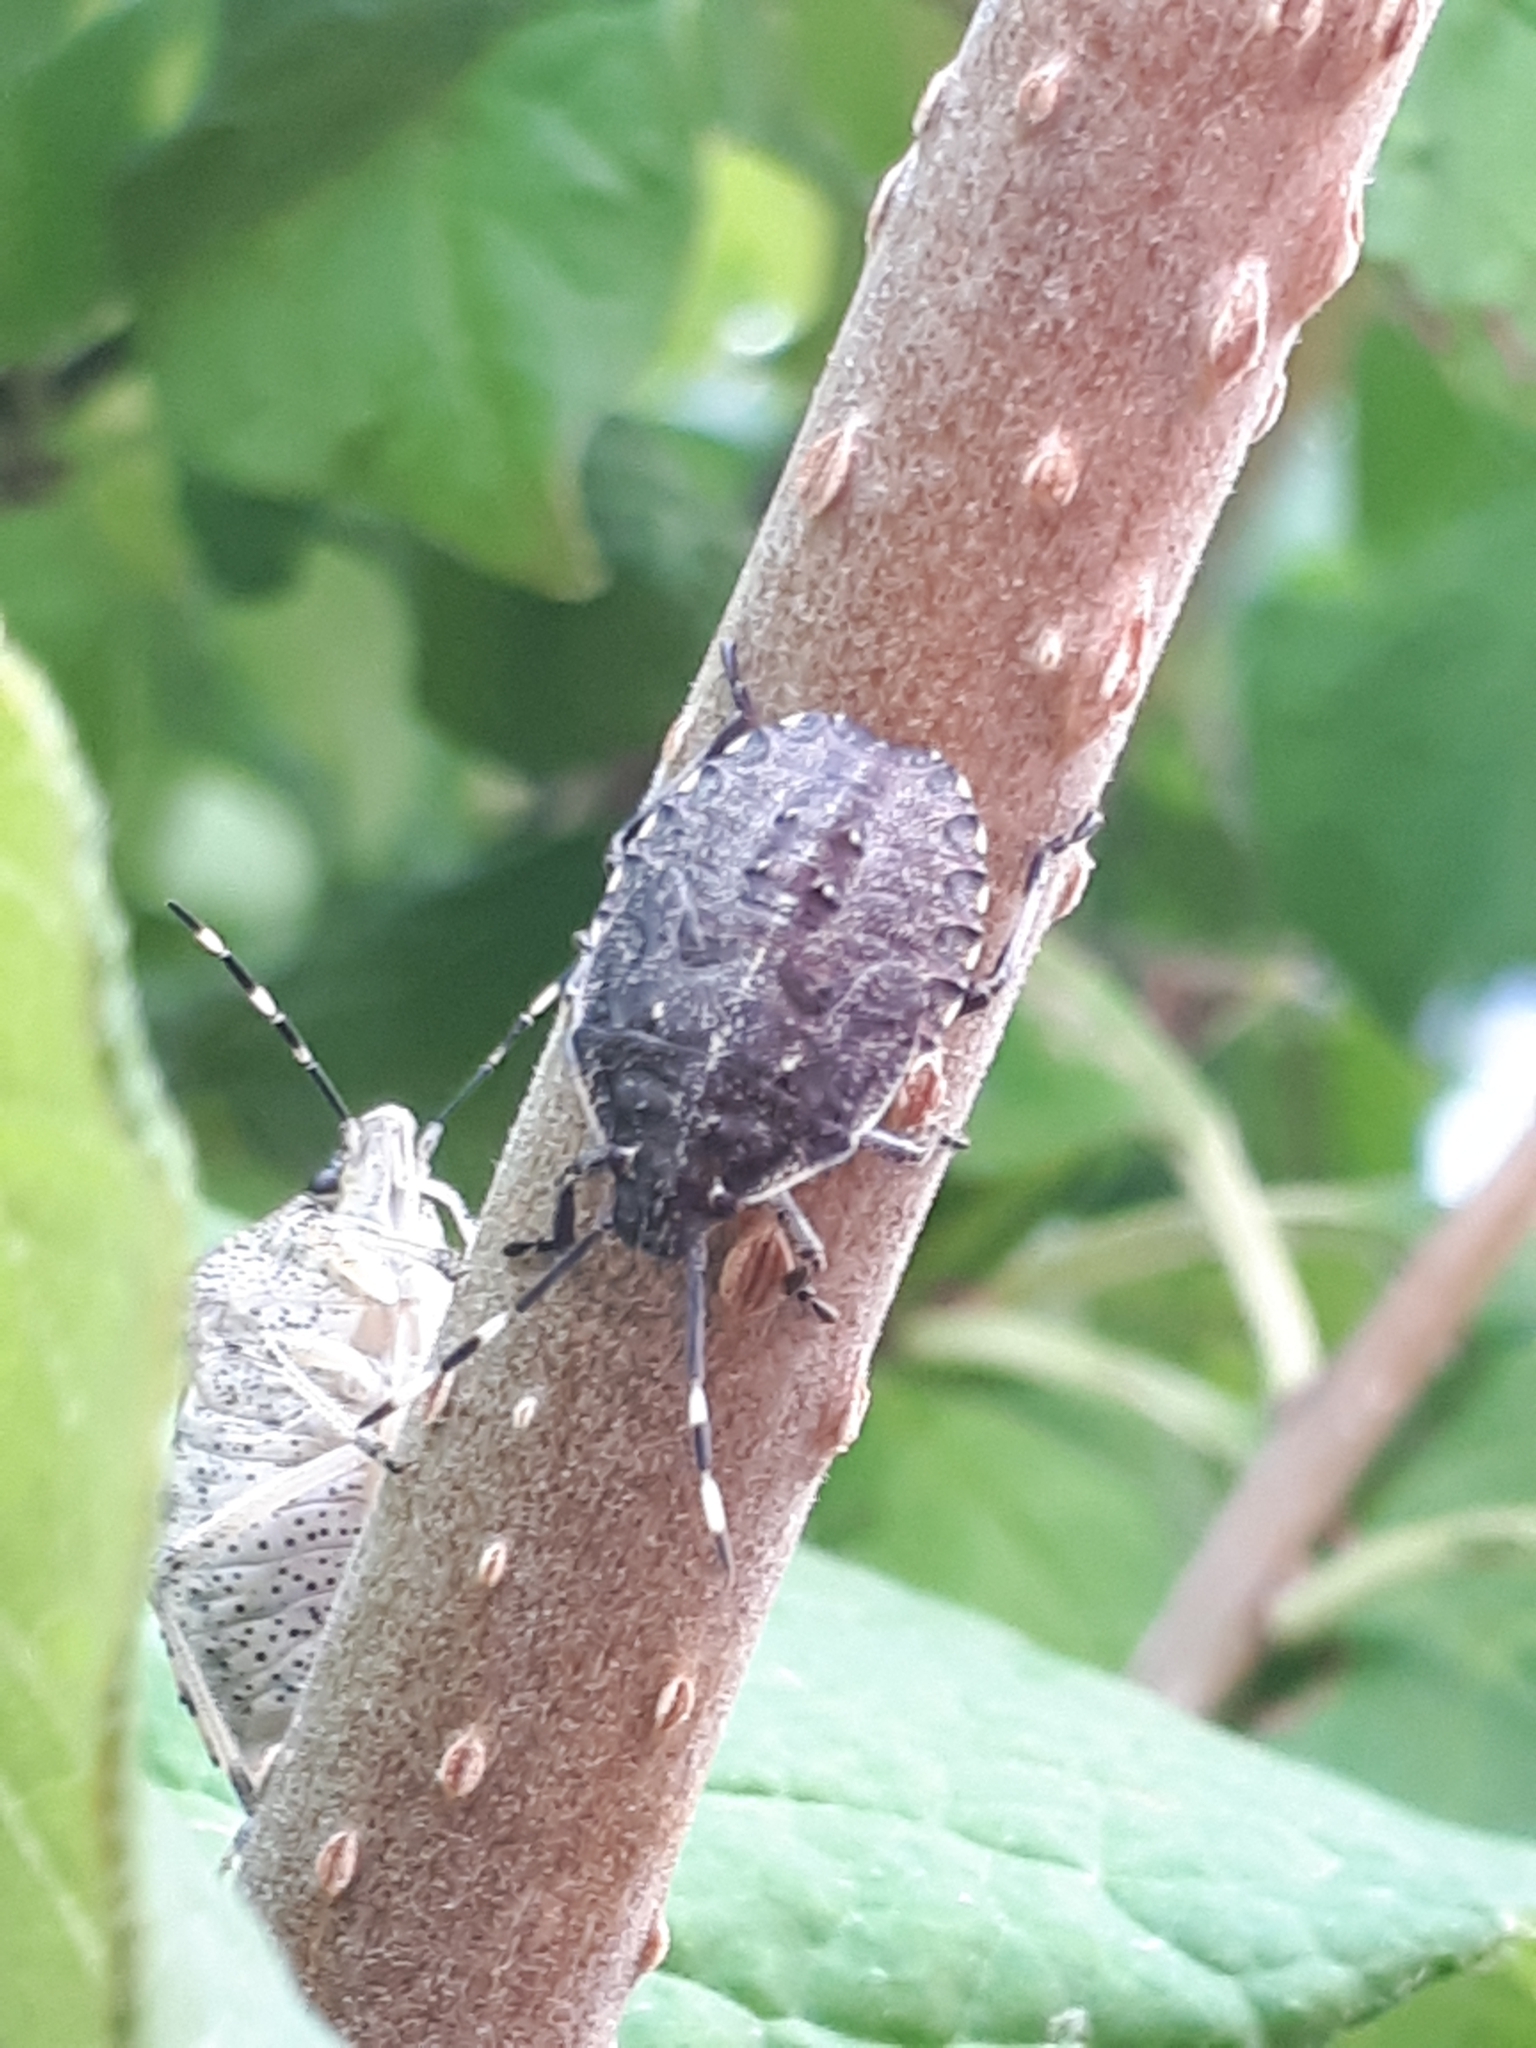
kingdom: Animalia
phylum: Arthropoda
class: Insecta
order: Hemiptera
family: Pentatomidae
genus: Rhaphigaster
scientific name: Rhaphigaster nebulosa
